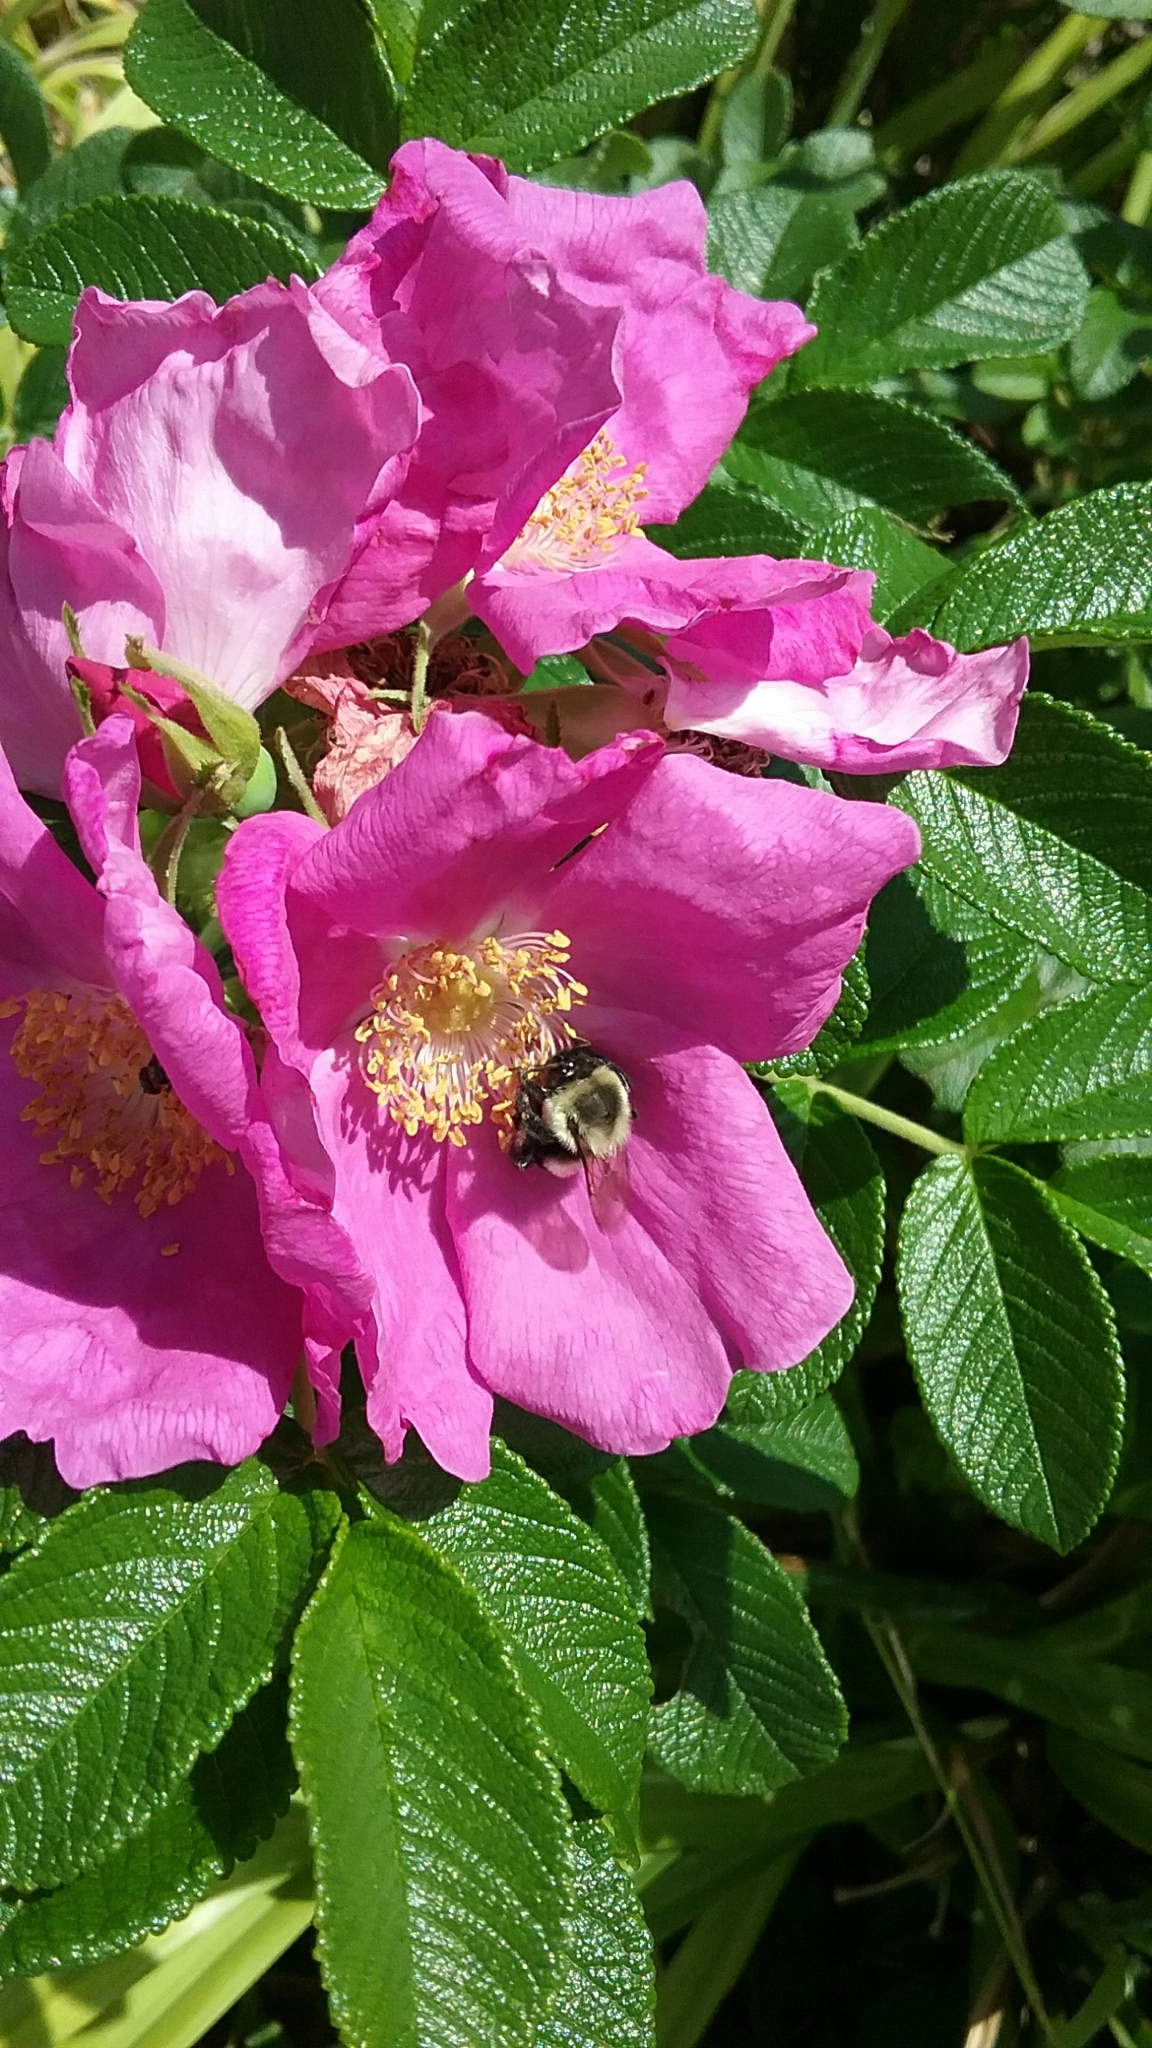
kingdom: Animalia
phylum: Arthropoda
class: Insecta
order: Hymenoptera
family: Apidae
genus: Bombus
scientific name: Bombus impatiens
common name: Common eastern bumble bee
